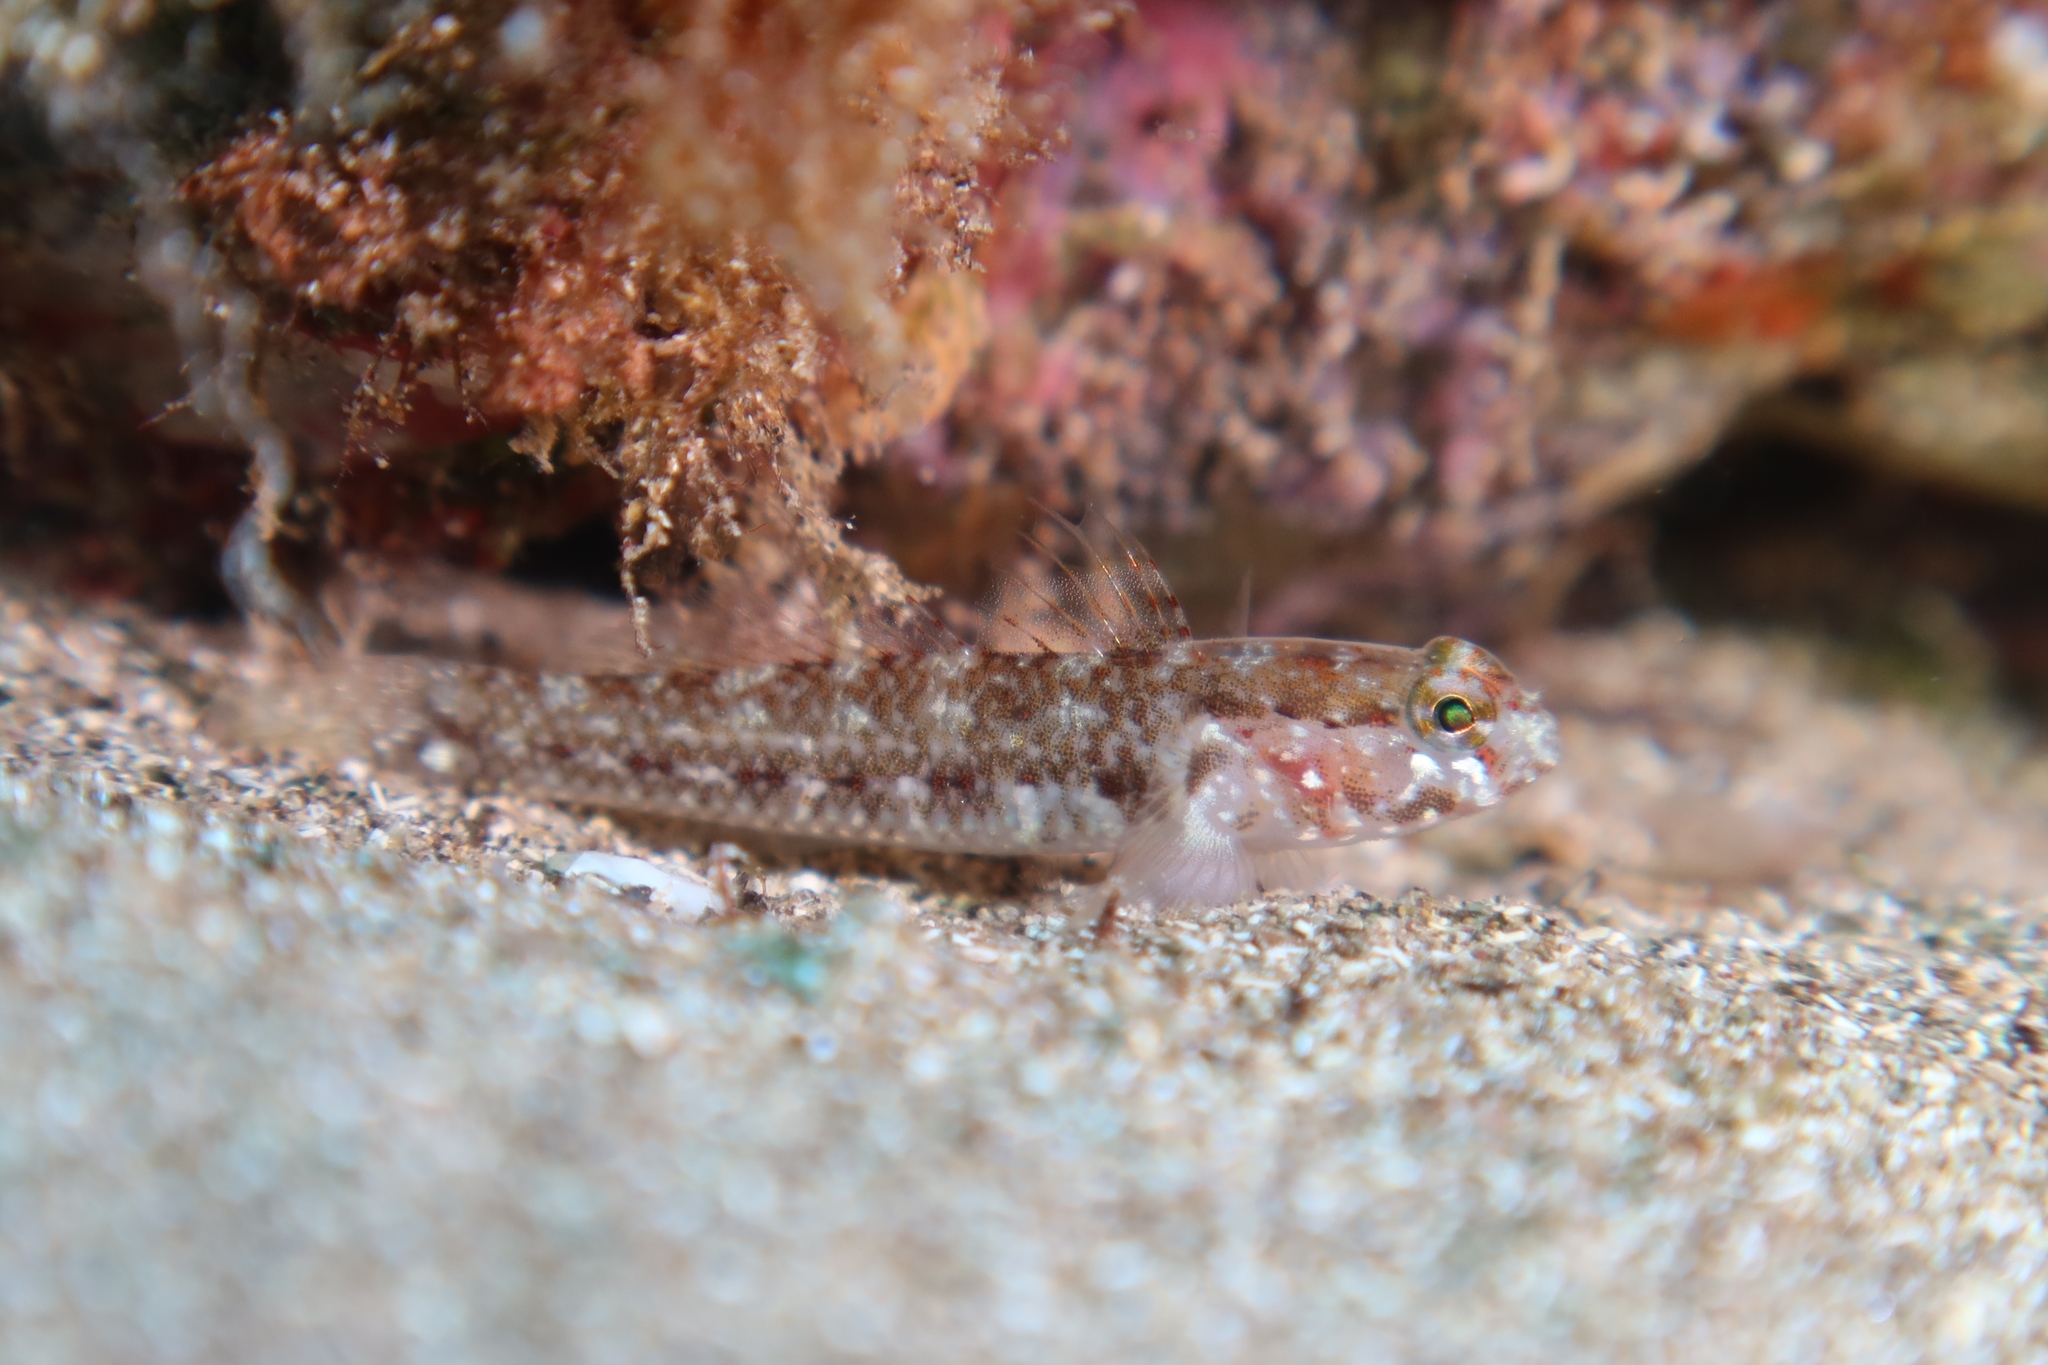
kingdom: Animalia
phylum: Chordata
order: Perciformes
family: Gobiidae
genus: Vanneaugobius
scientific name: Vanneaugobius canariensis
